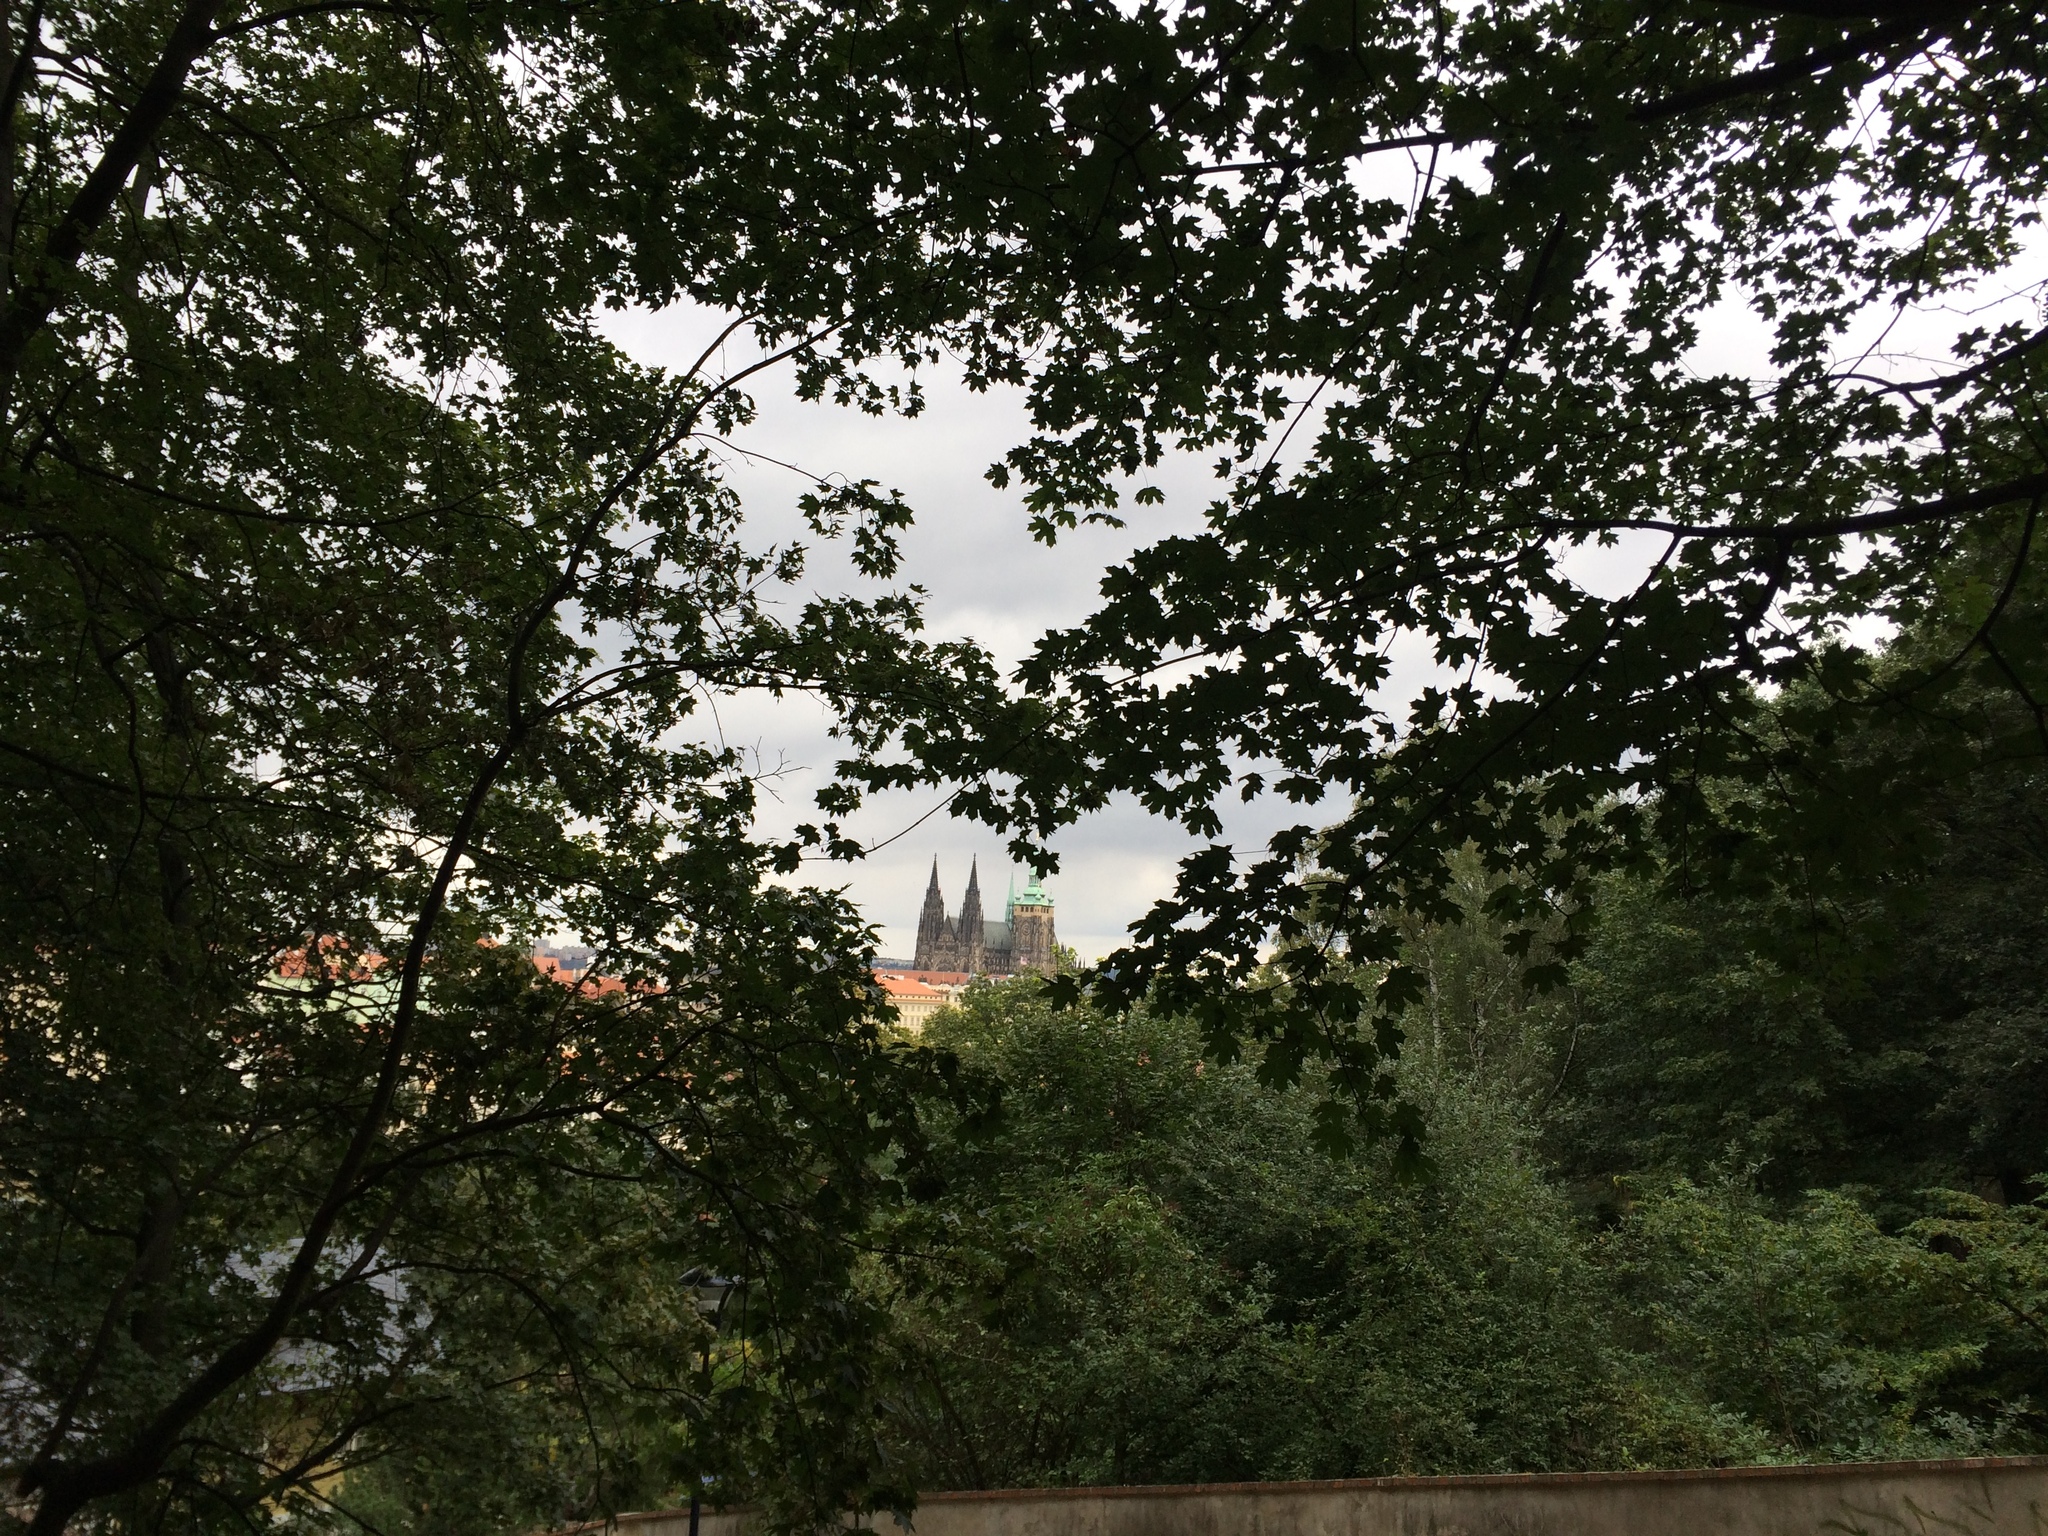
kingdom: Plantae
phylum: Tracheophyta
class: Magnoliopsida
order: Sapindales
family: Sapindaceae
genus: Acer
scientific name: Acer platanoides
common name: Norway maple
